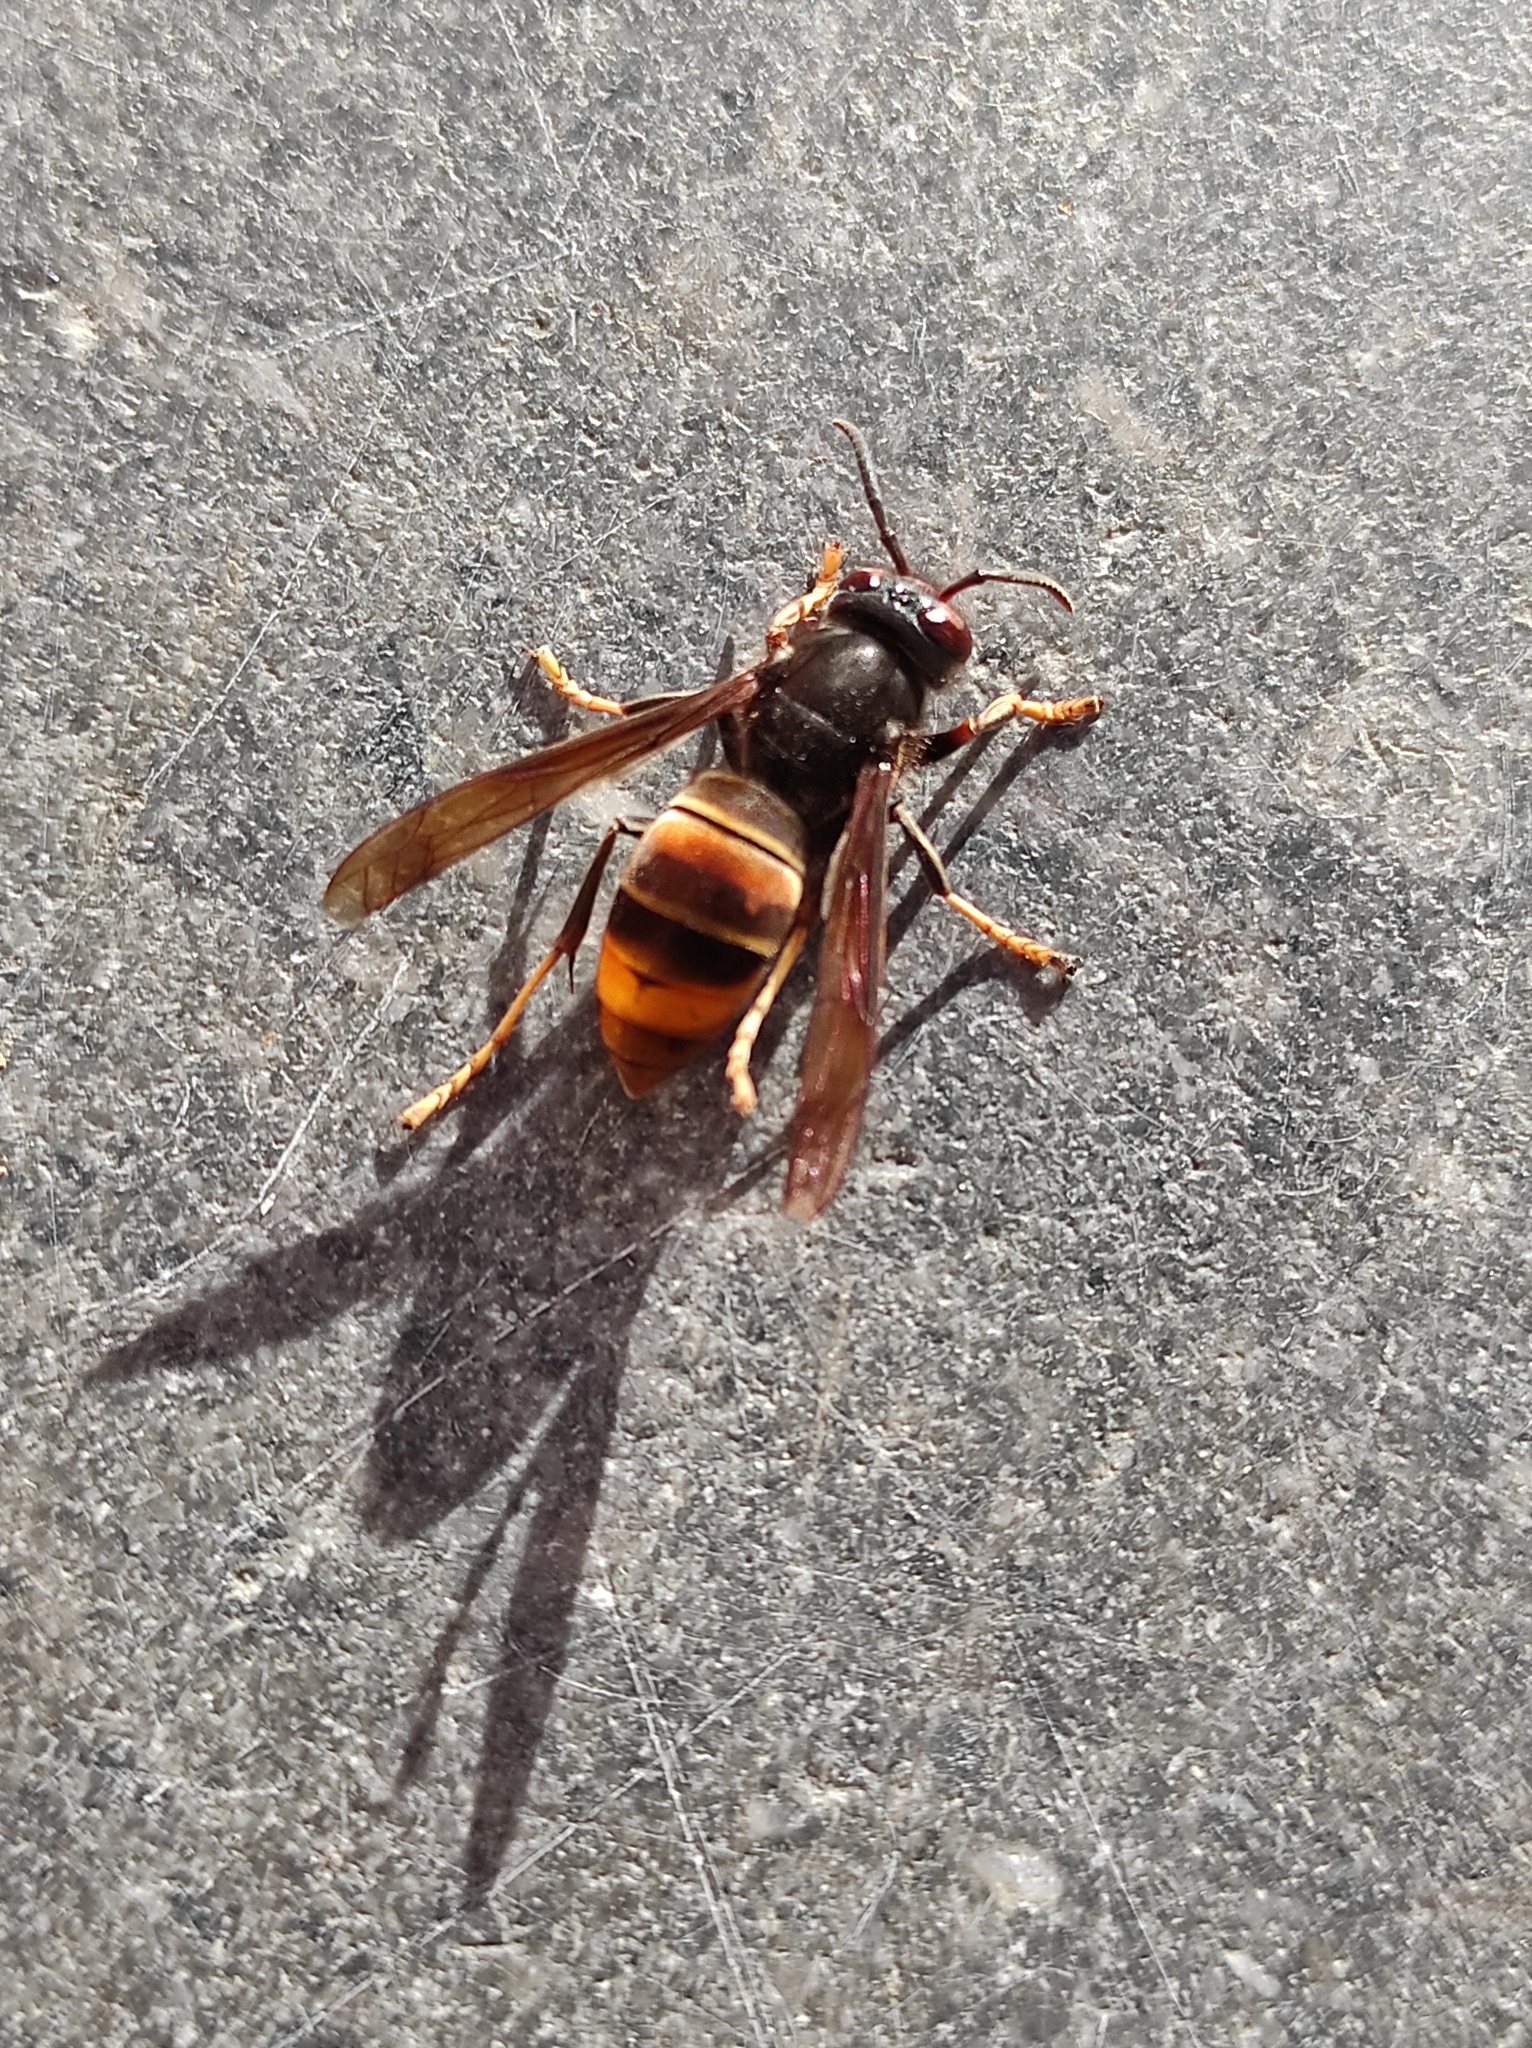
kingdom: Animalia
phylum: Arthropoda
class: Insecta
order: Hymenoptera
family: Vespidae
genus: Vespa
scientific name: Vespa velutina
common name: Asian hornet
